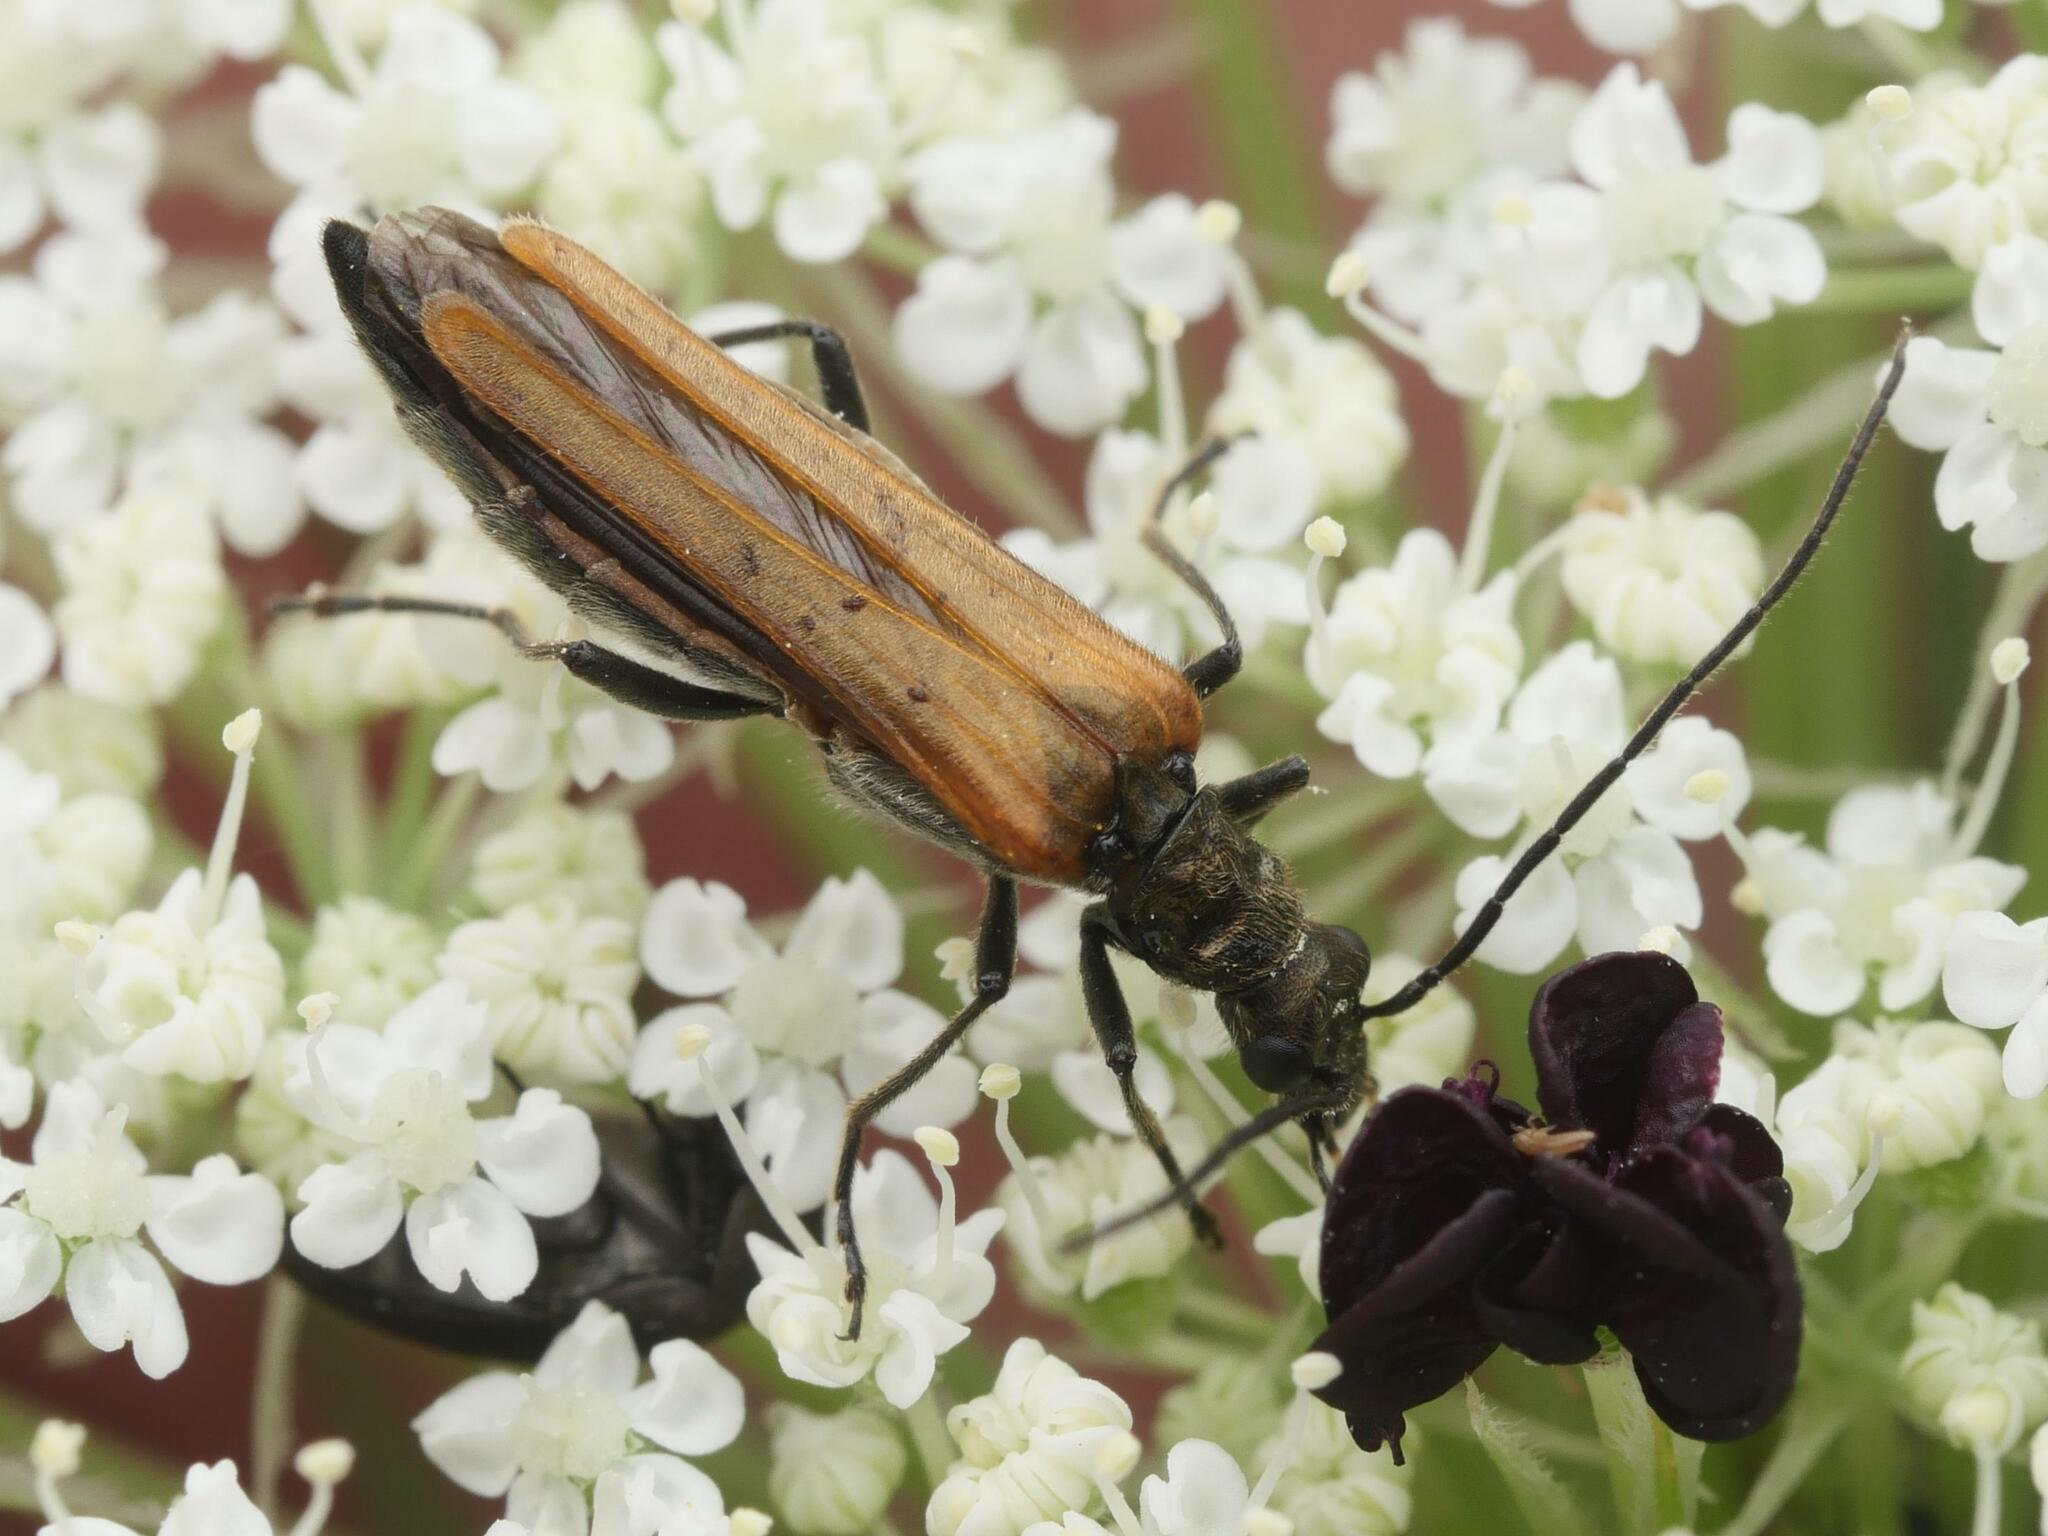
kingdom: Animalia
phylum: Arthropoda
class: Insecta
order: Coleoptera
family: Oedemeridae
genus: Oedemera
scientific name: Oedemera femorata
